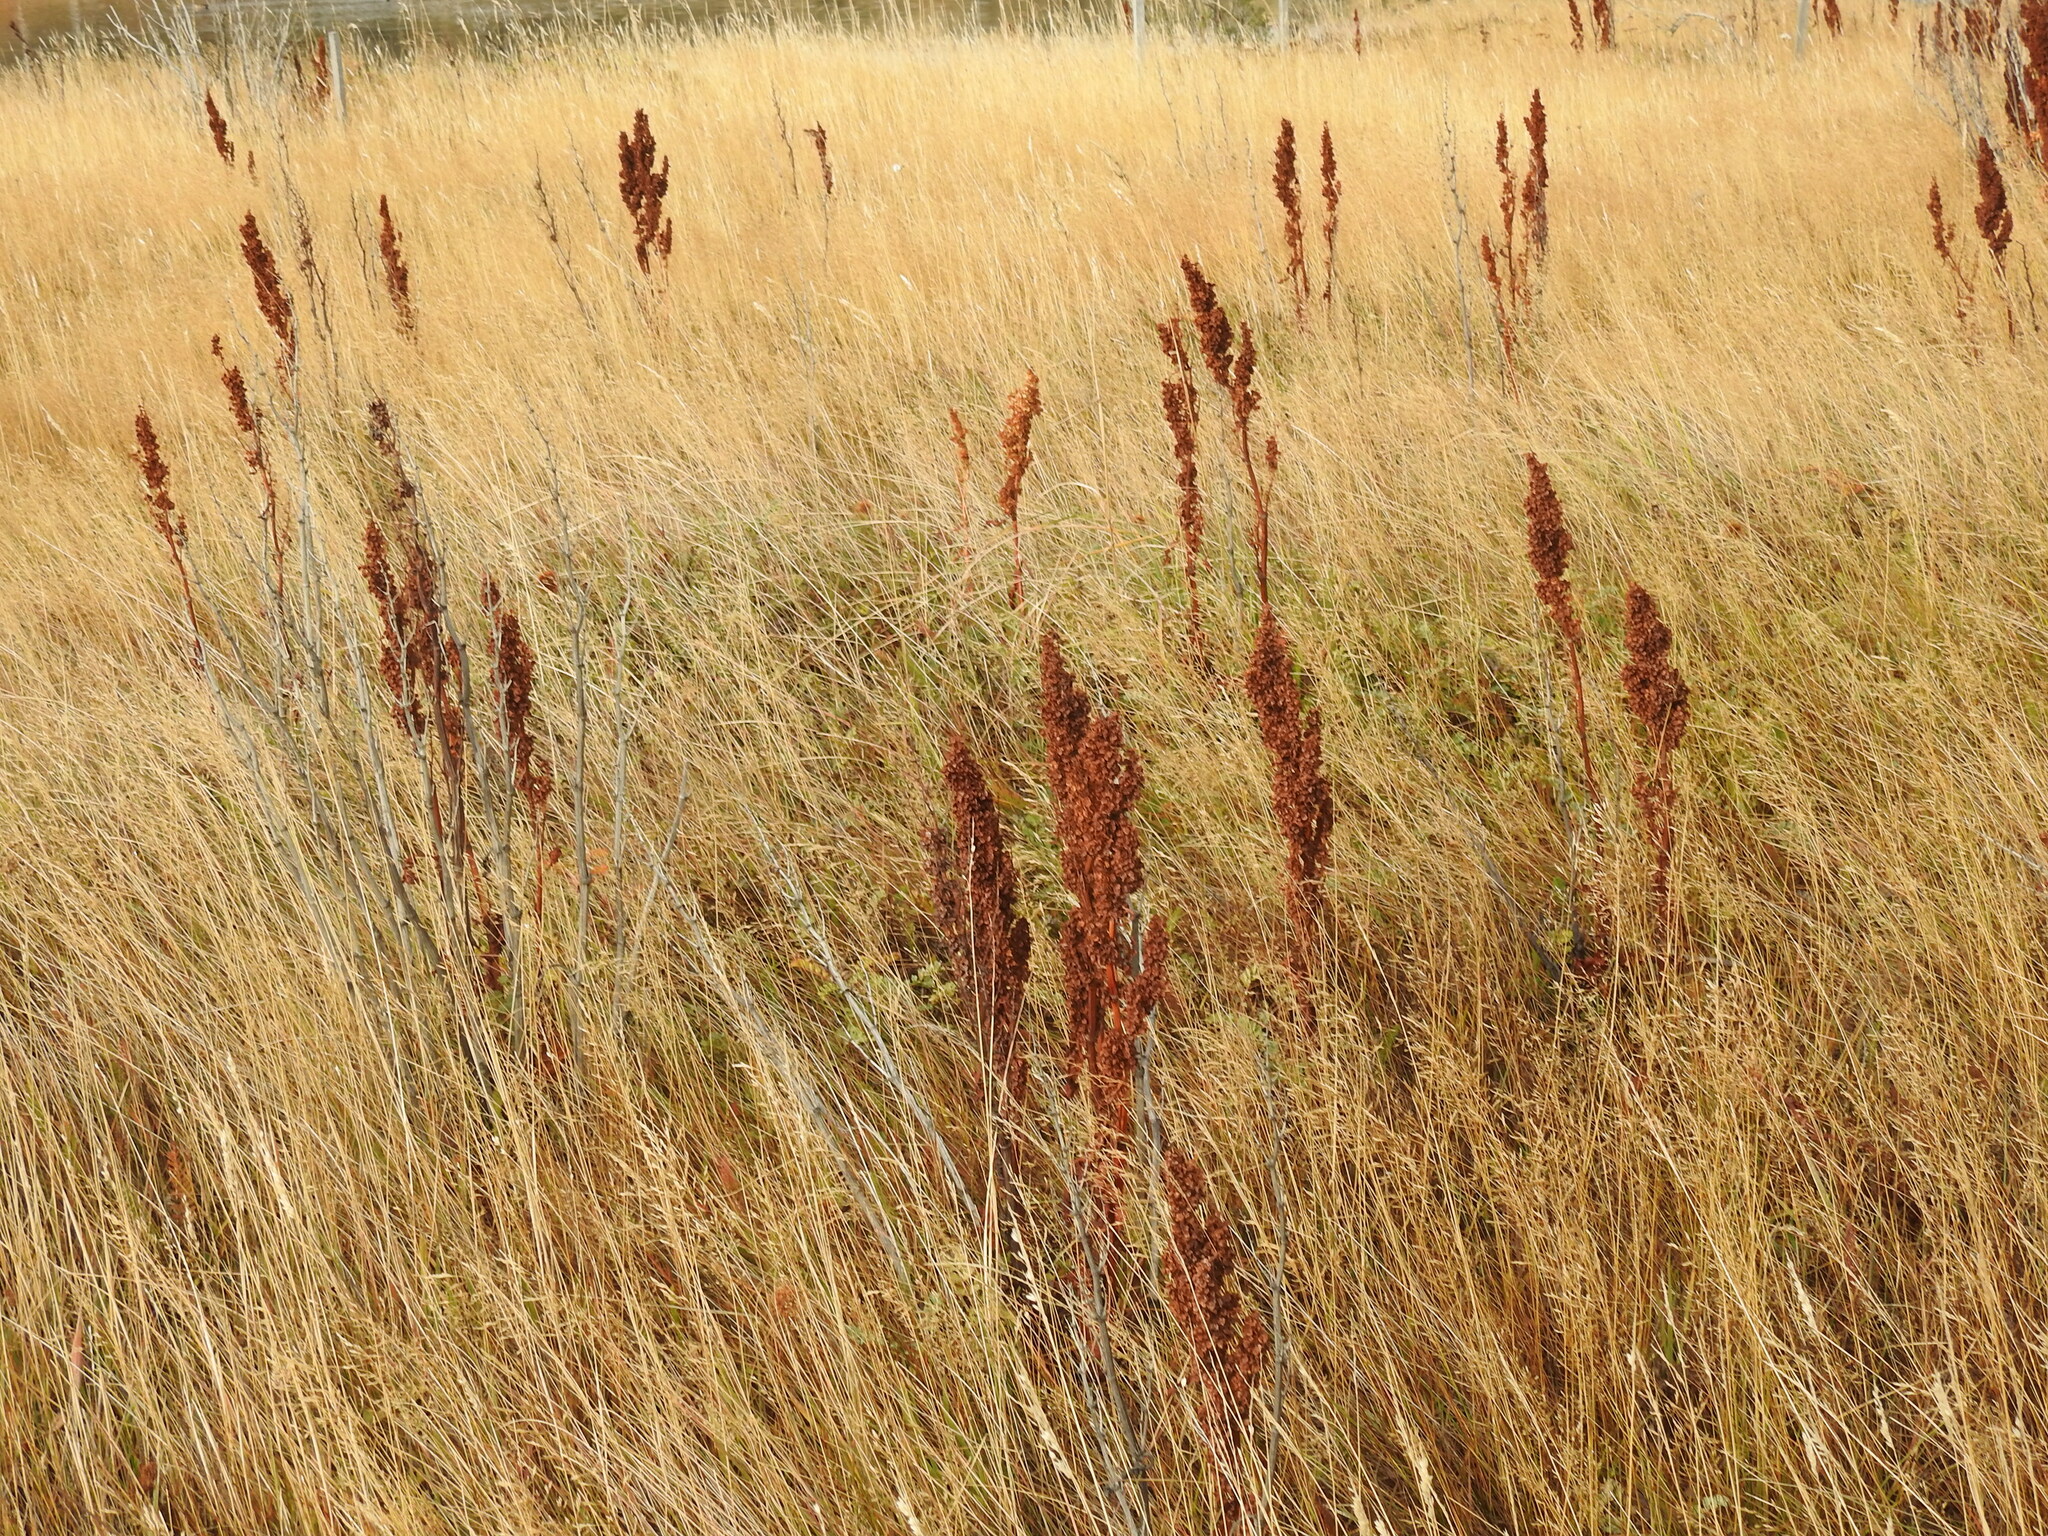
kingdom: Plantae
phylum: Tracheophyta
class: Magnoliopsida
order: Caryophyllales
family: Polygonaceae
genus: Rumex
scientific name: Rumex crispus
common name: Curled dock
